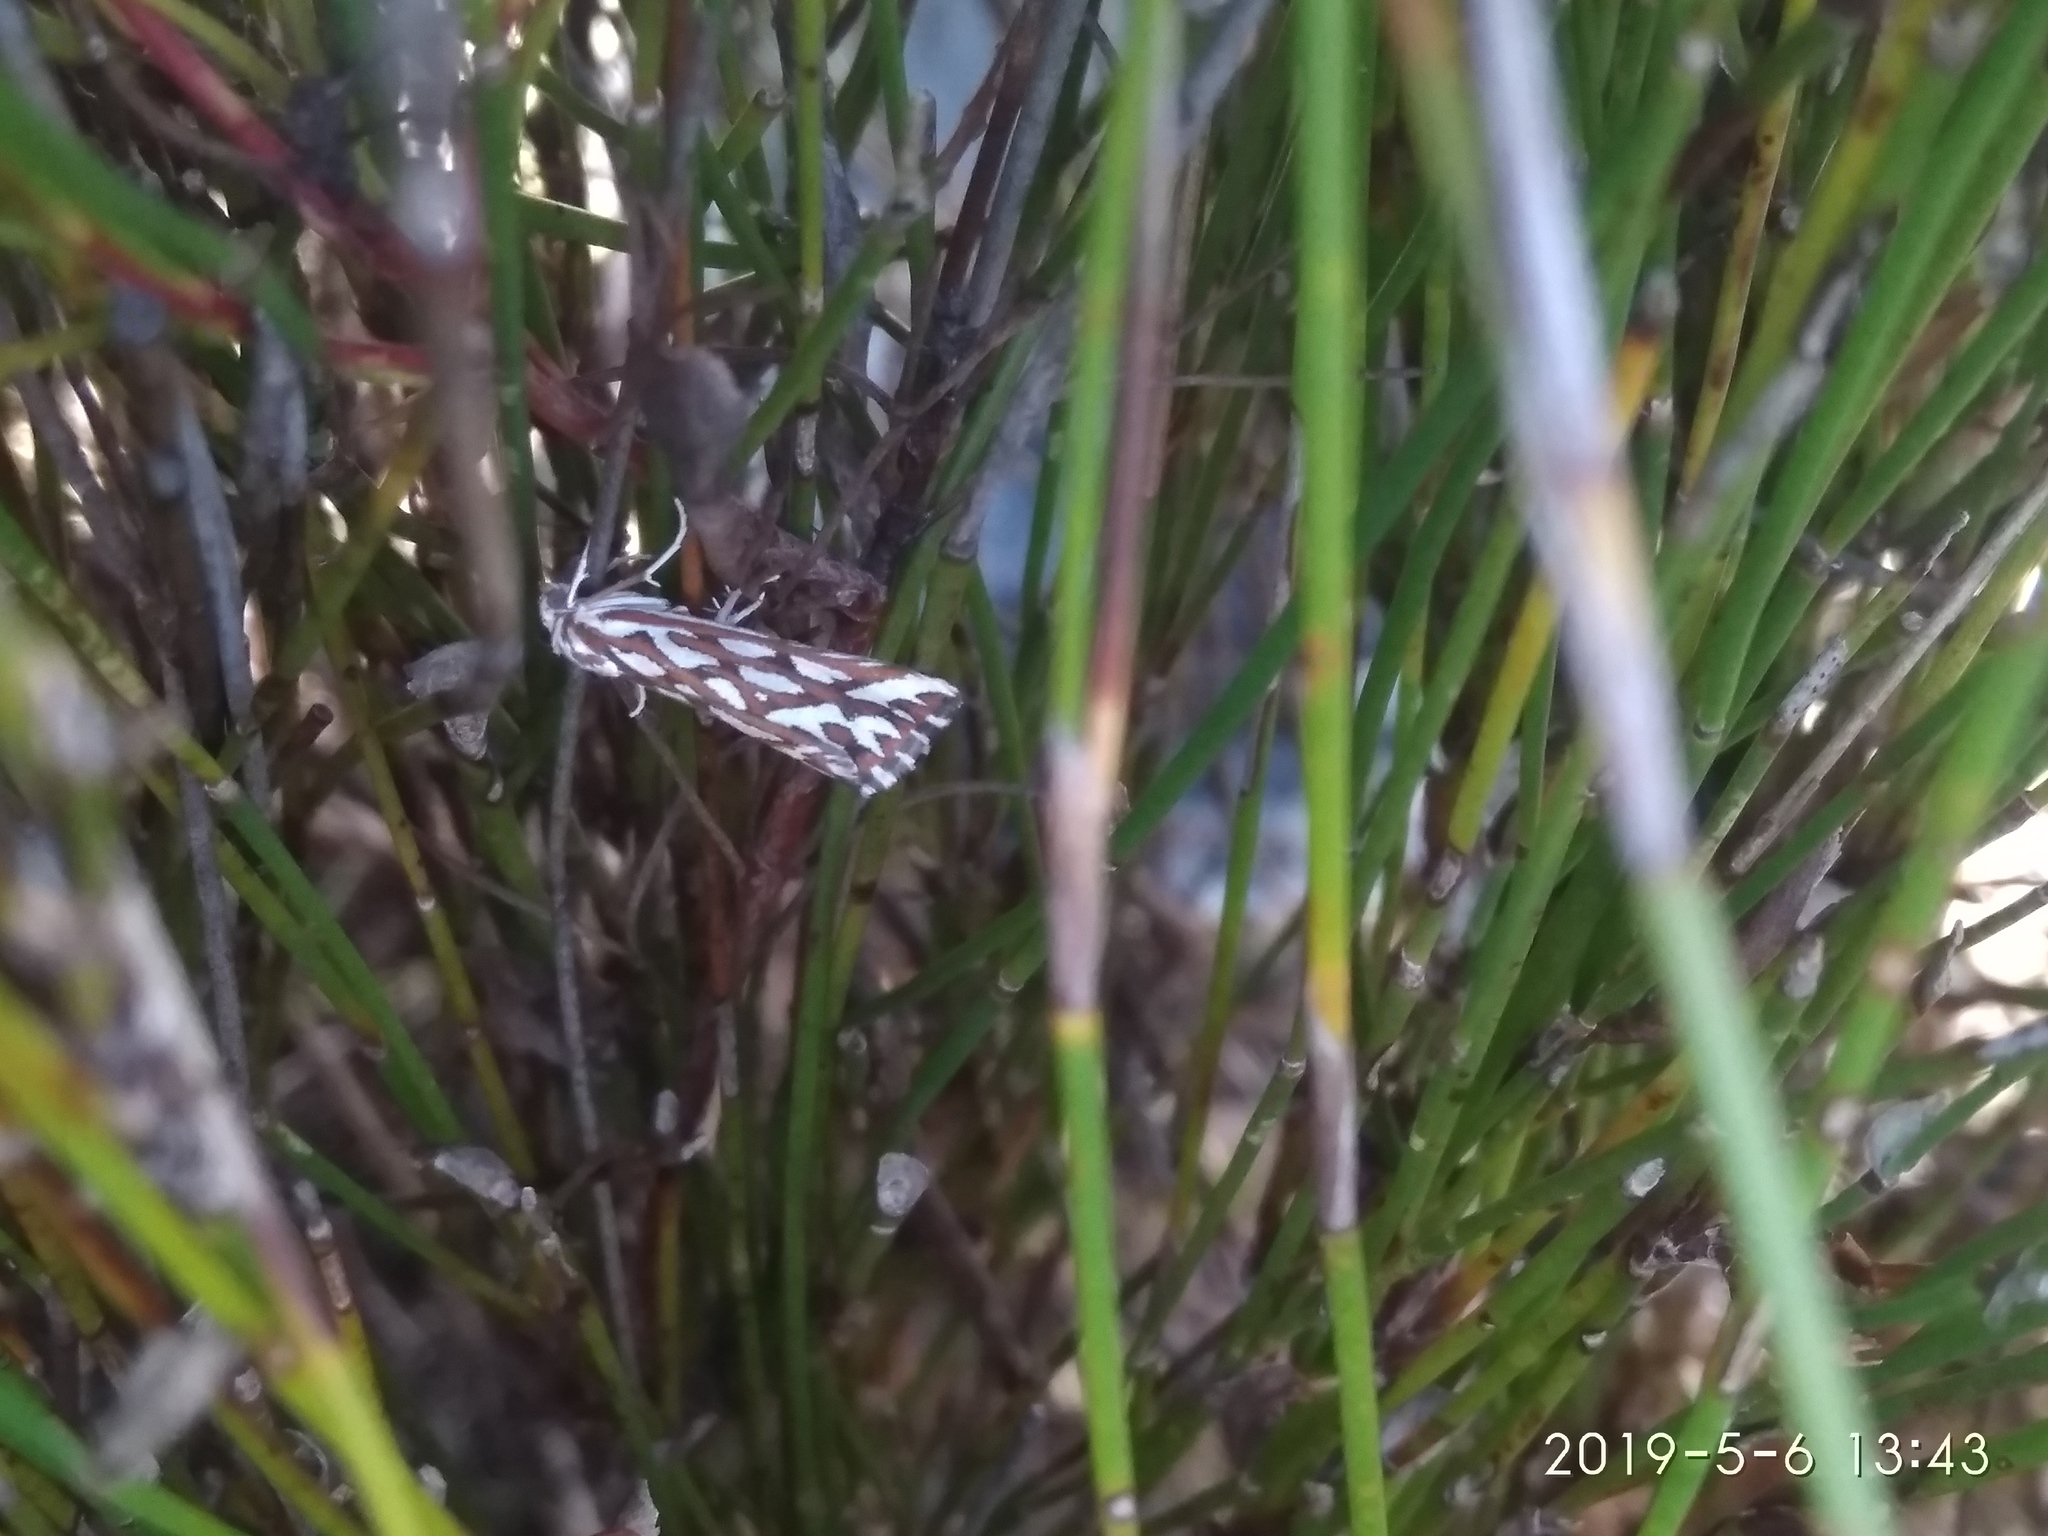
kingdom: Animalia
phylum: Arthropoda
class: Insecta
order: Lepidoptera
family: Geometridae
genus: Argyrophora
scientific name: Argyrophora trofonia
